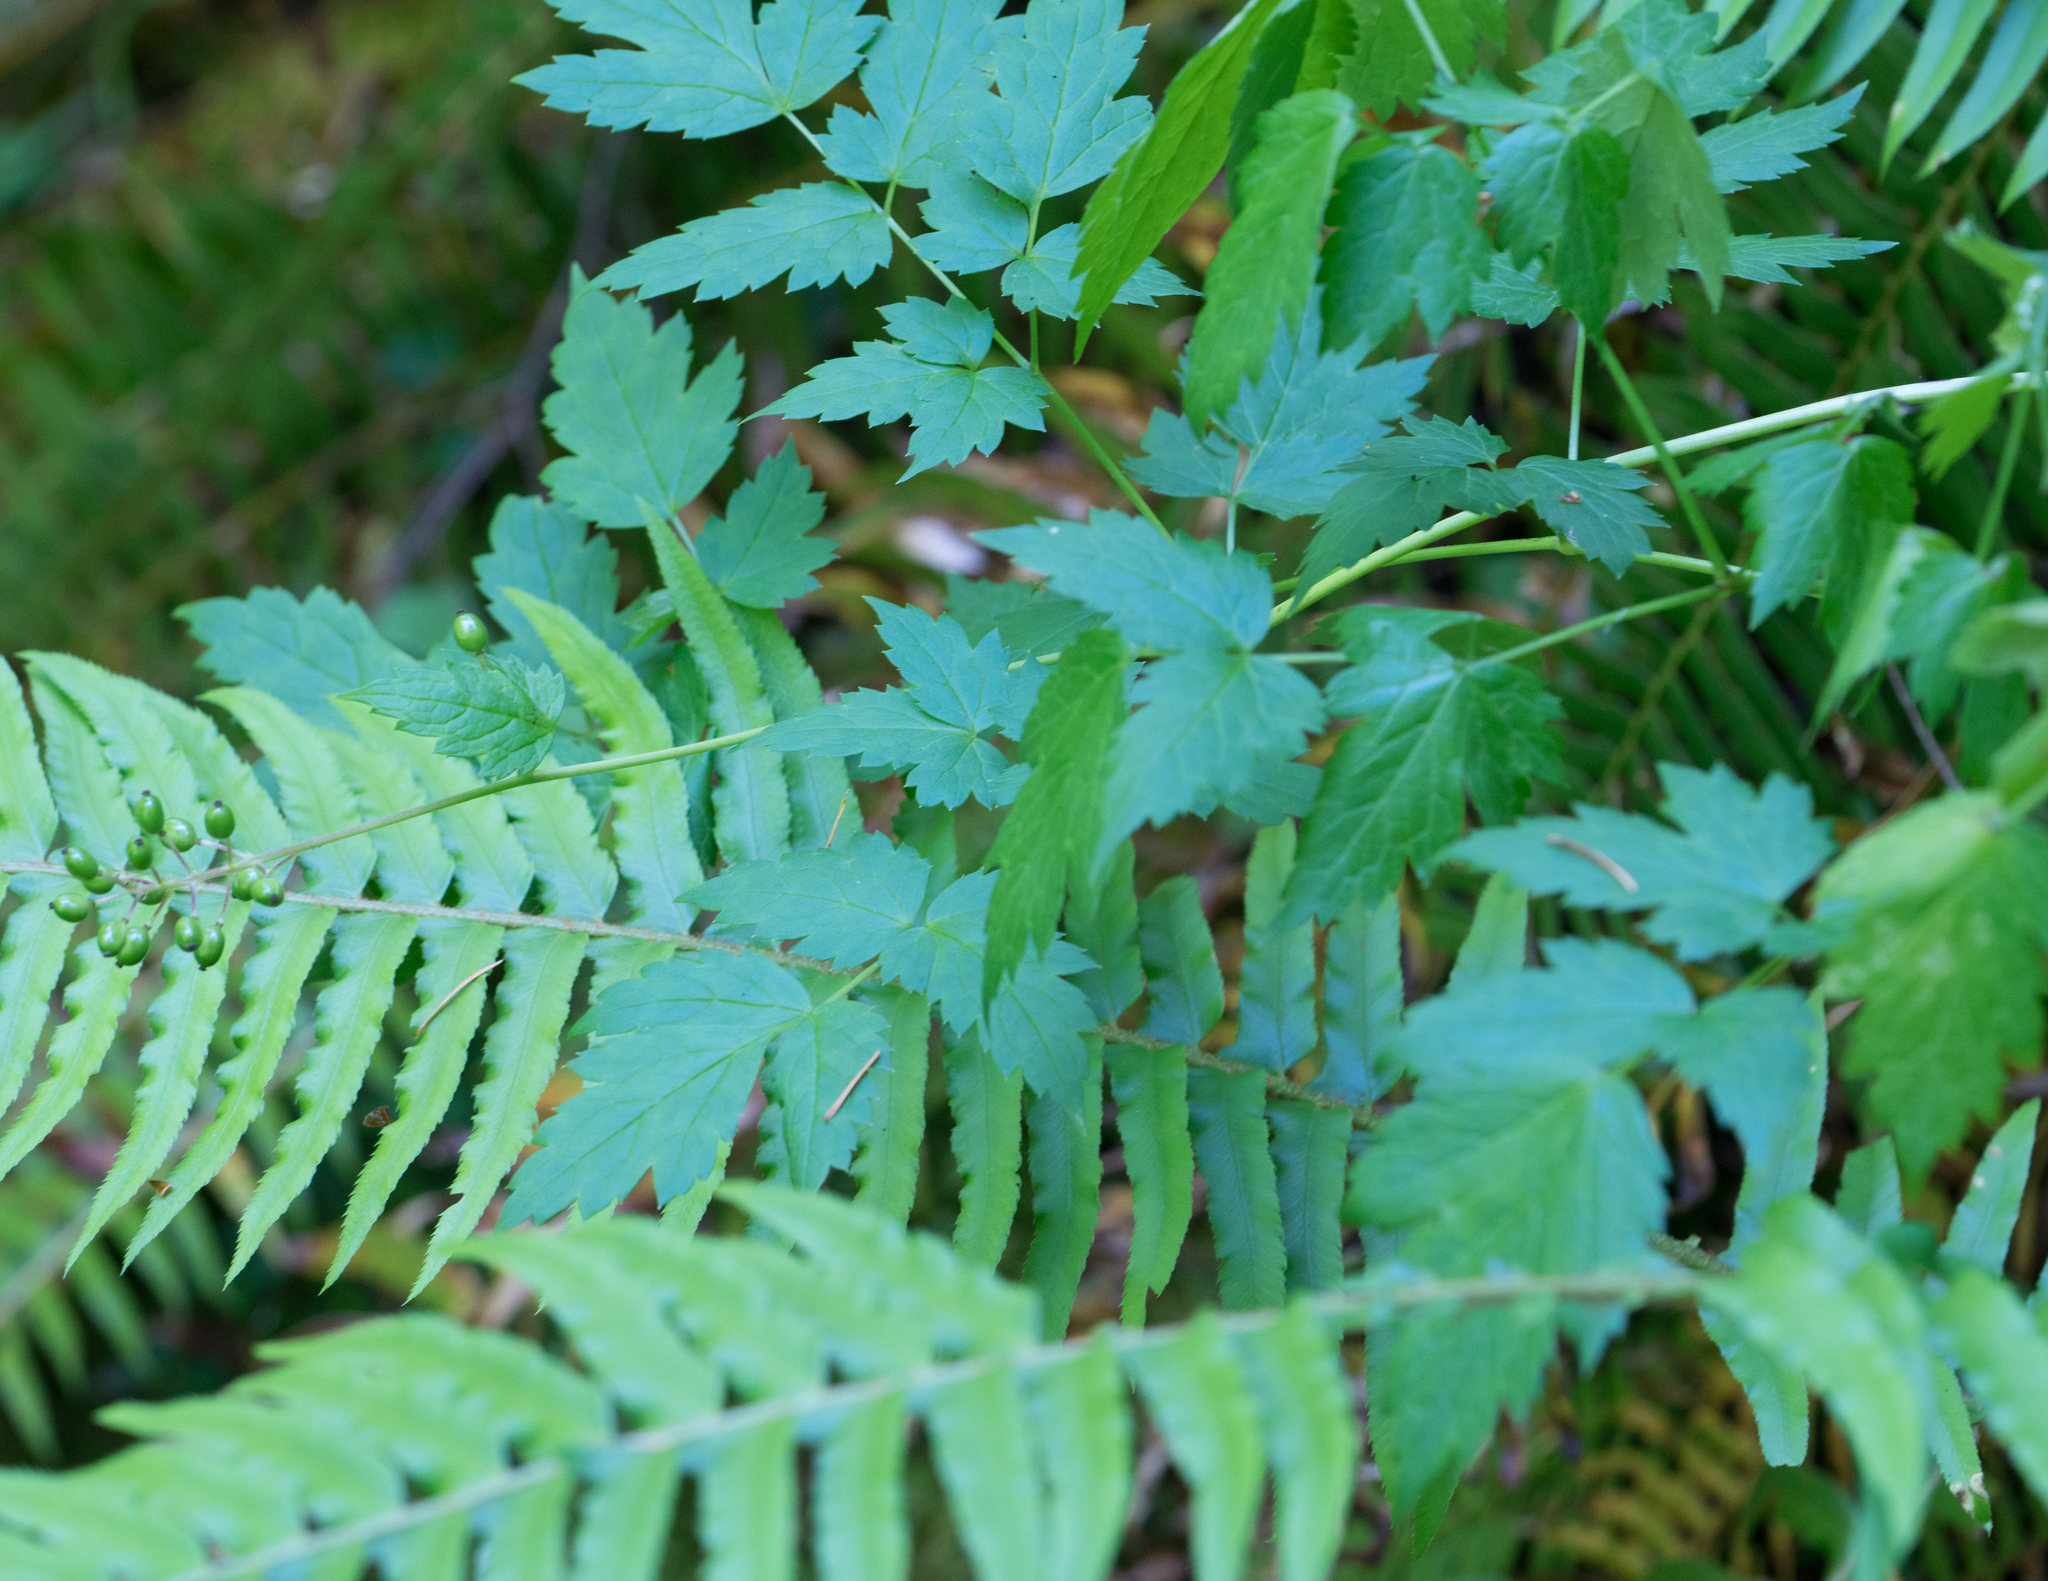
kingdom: Plantae
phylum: Tracheophyta
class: Magnoliopsida
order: Ranunculales
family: Ranunculaceae
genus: Actaea
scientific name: Actaea rubra
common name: Red baneberry
